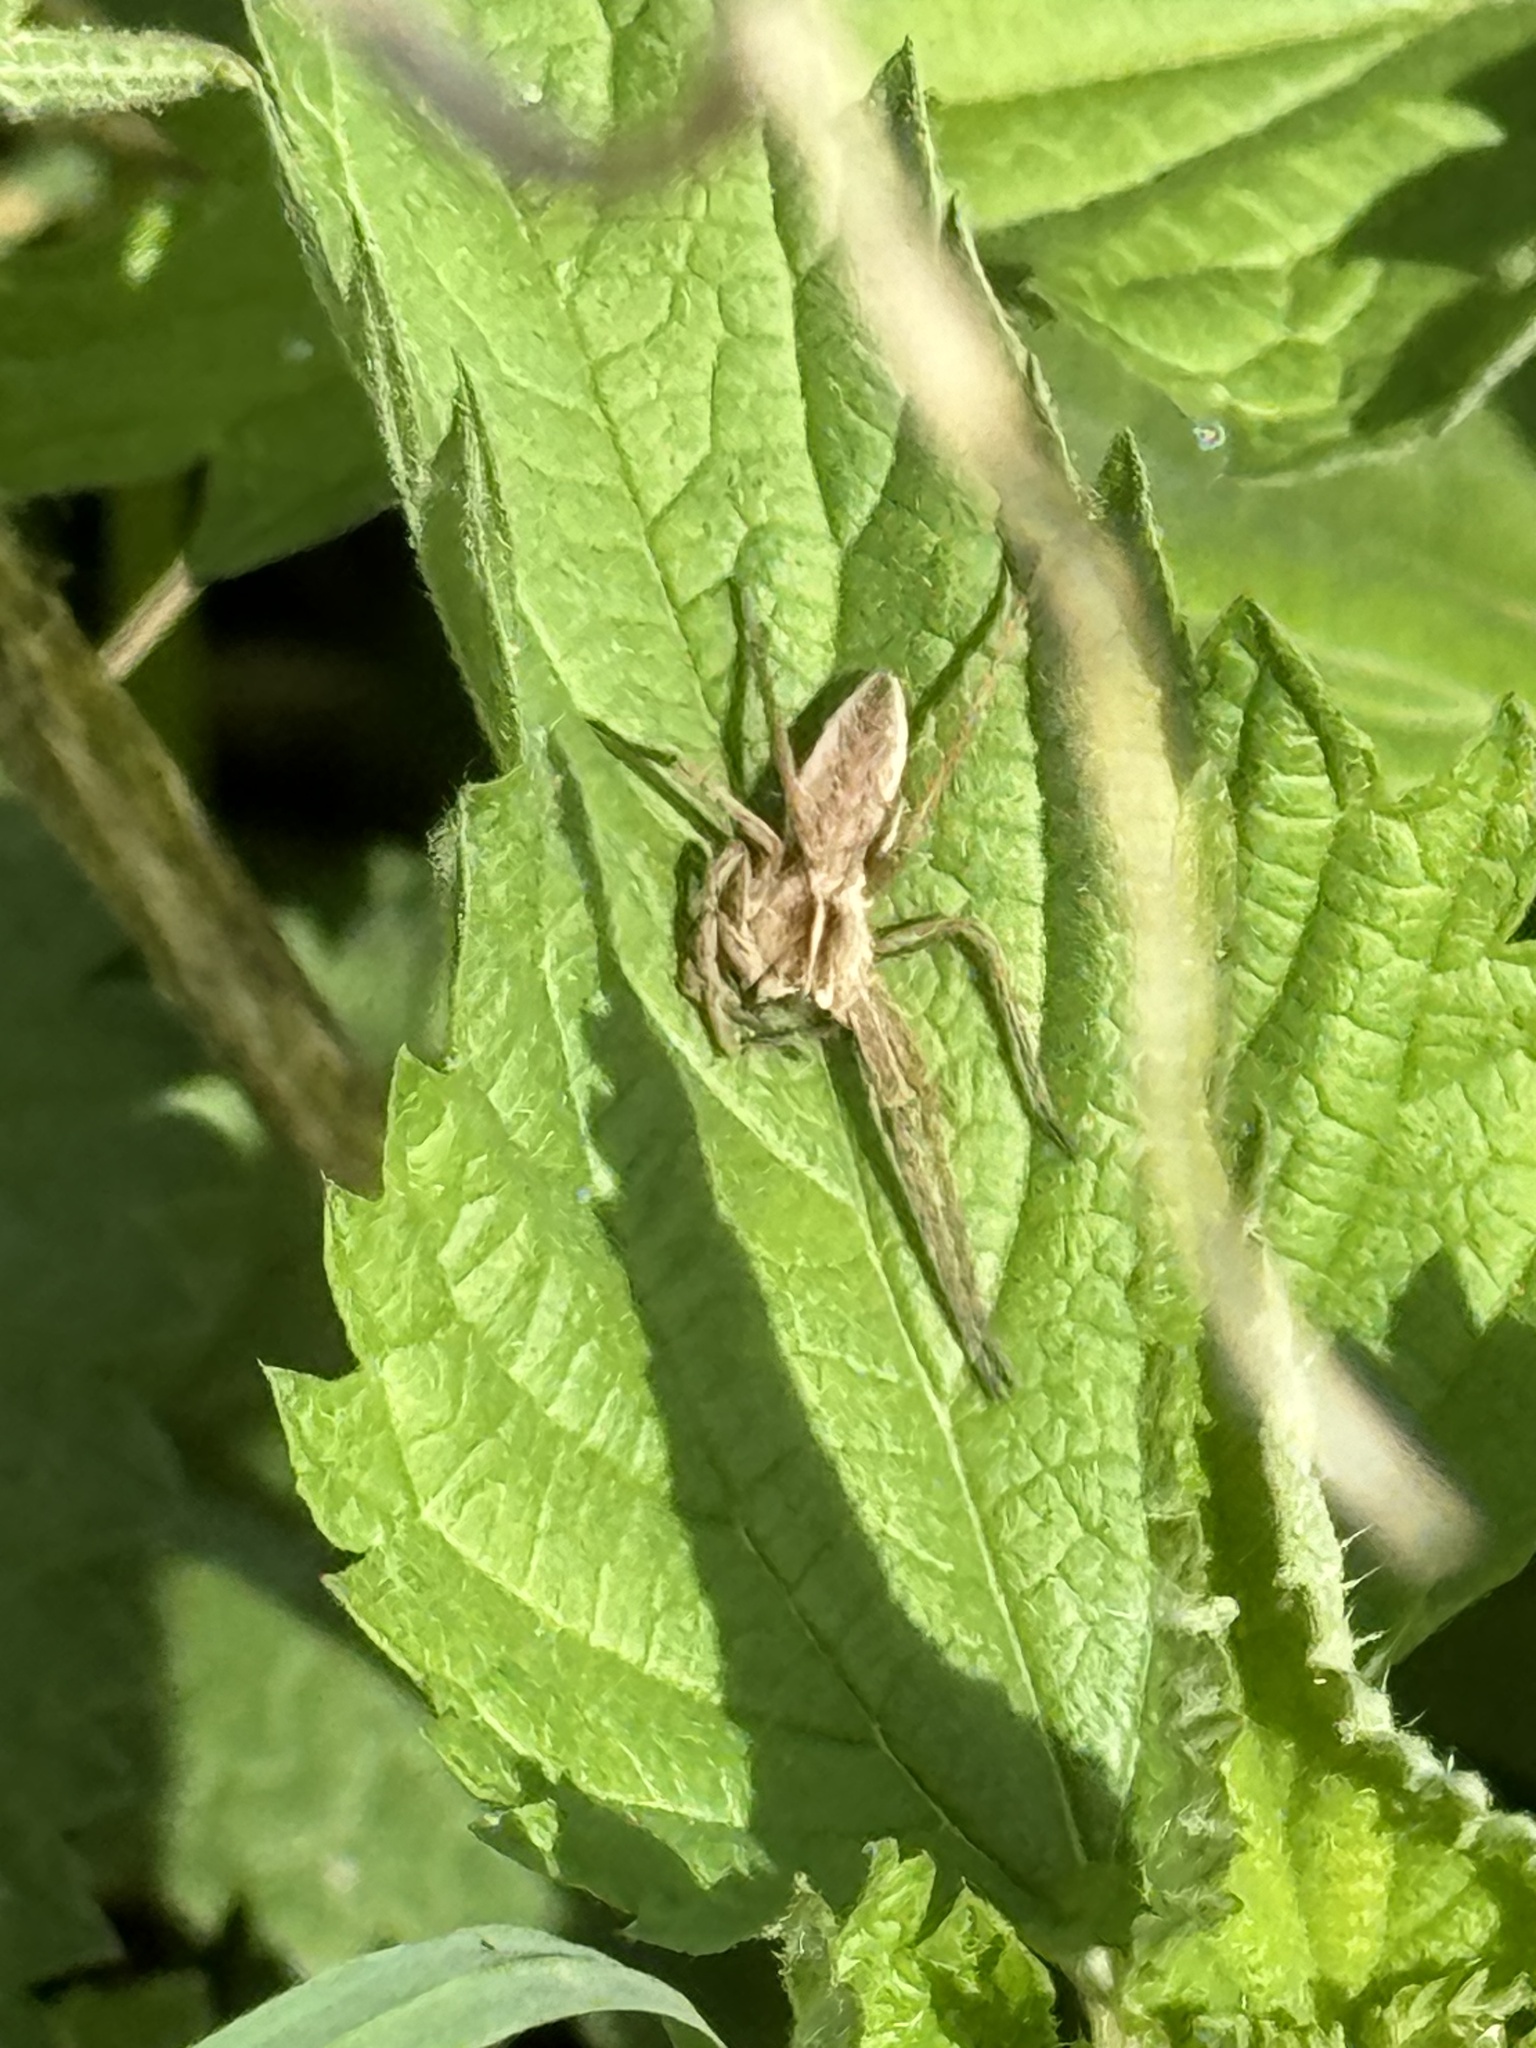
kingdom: Animalia
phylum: Arthropoda
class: Arachnida
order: Araneae
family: Pisauridae
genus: Pisaura
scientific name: Pisaura mirabilis
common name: Tent spider
